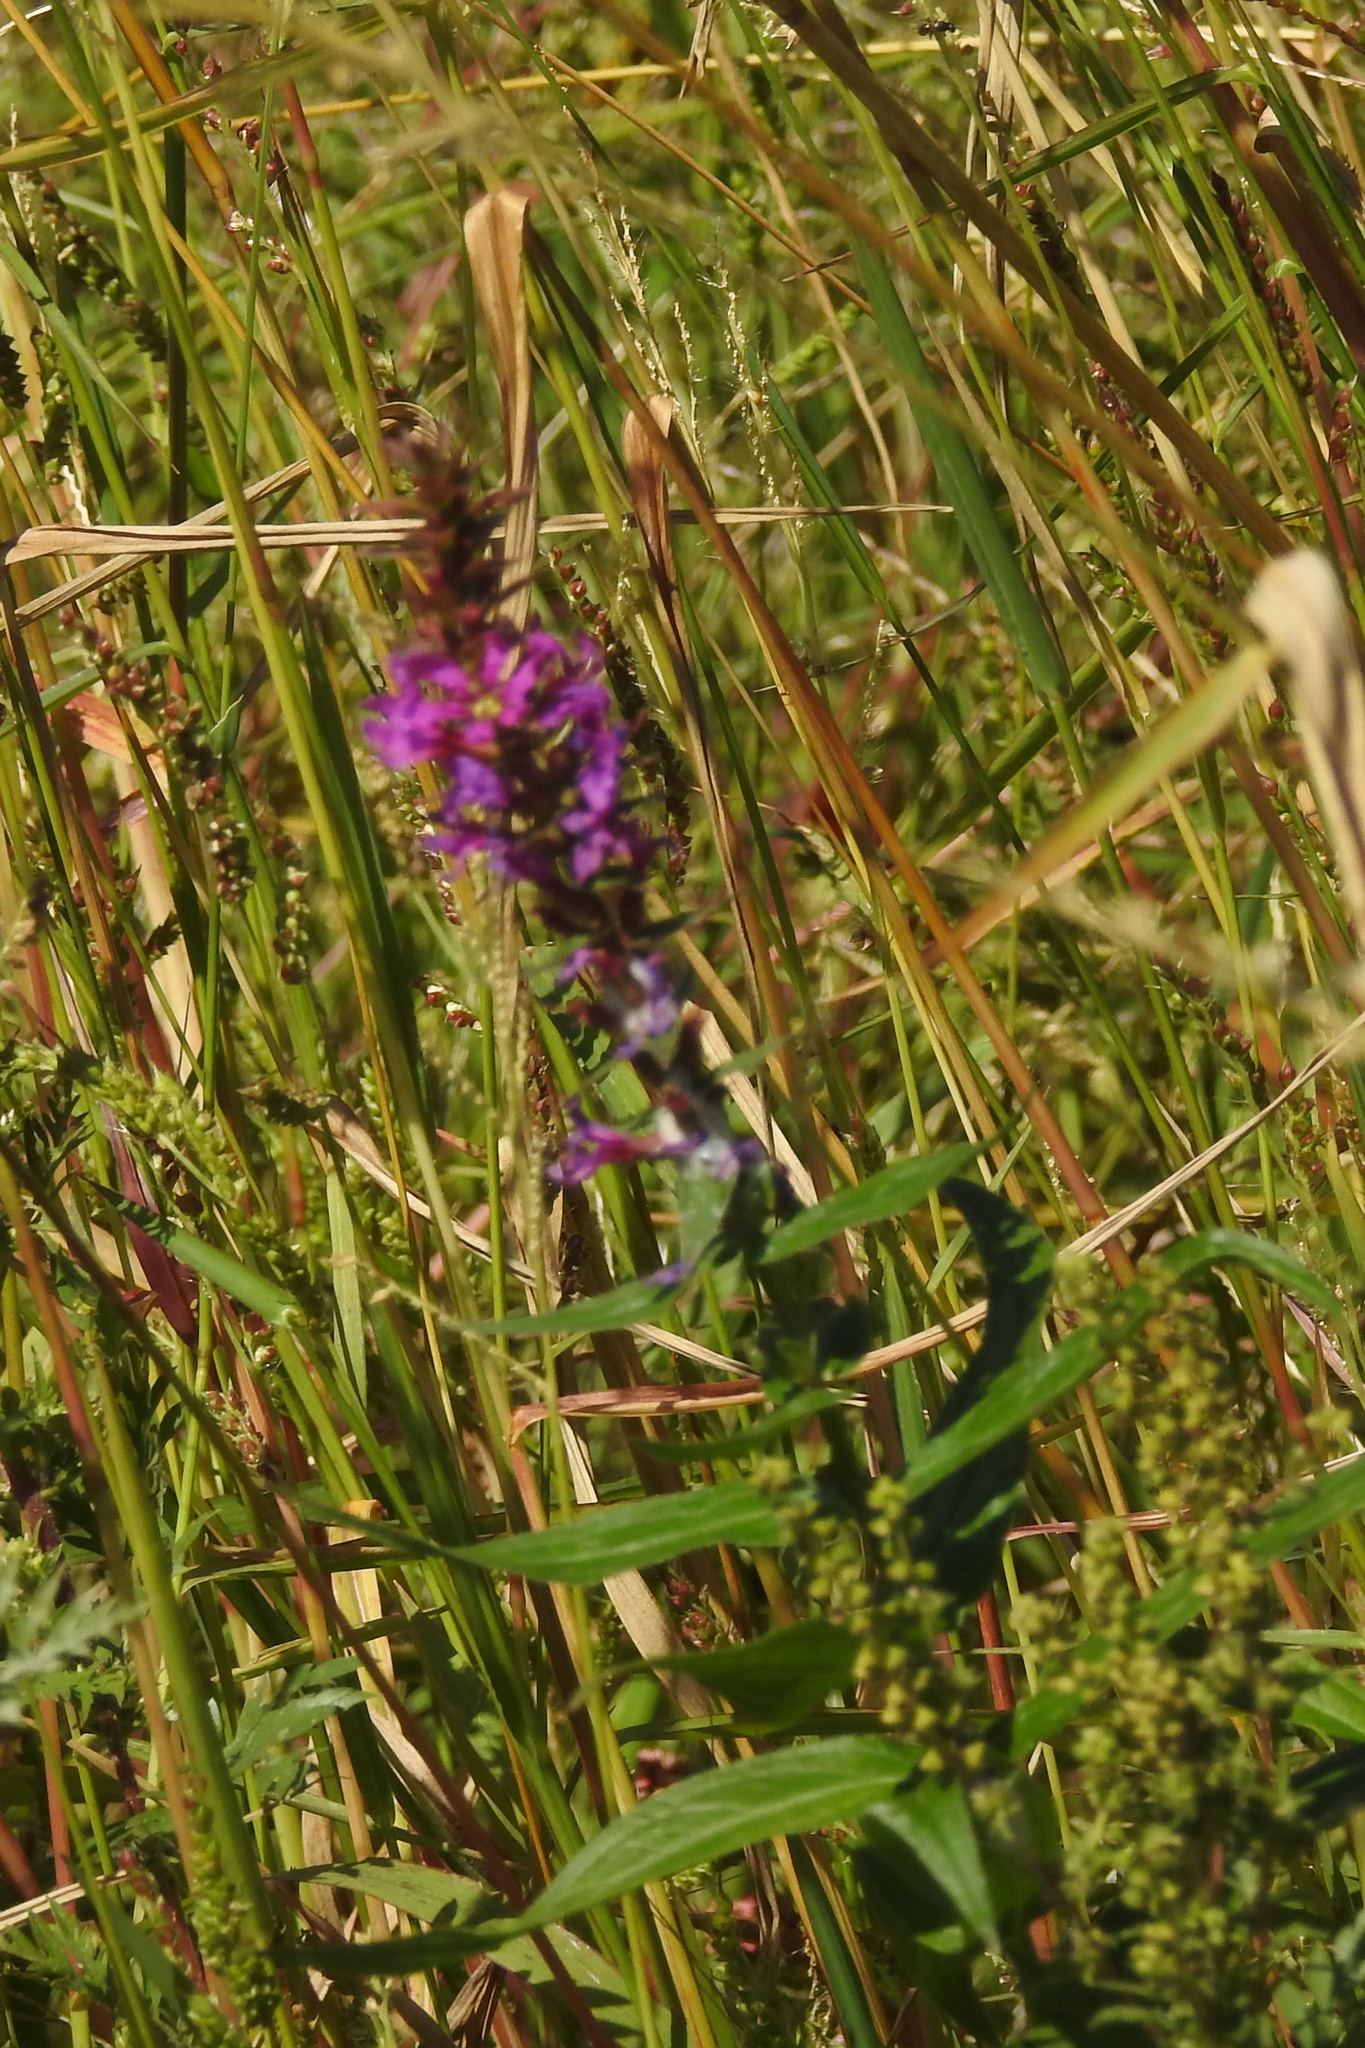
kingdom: Plantae
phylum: Tracheophyta
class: Magnoliopsida
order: Myrtales
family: Lythraceae
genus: Lythrum
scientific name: Lythrum salicaria
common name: Purple loosestrife
